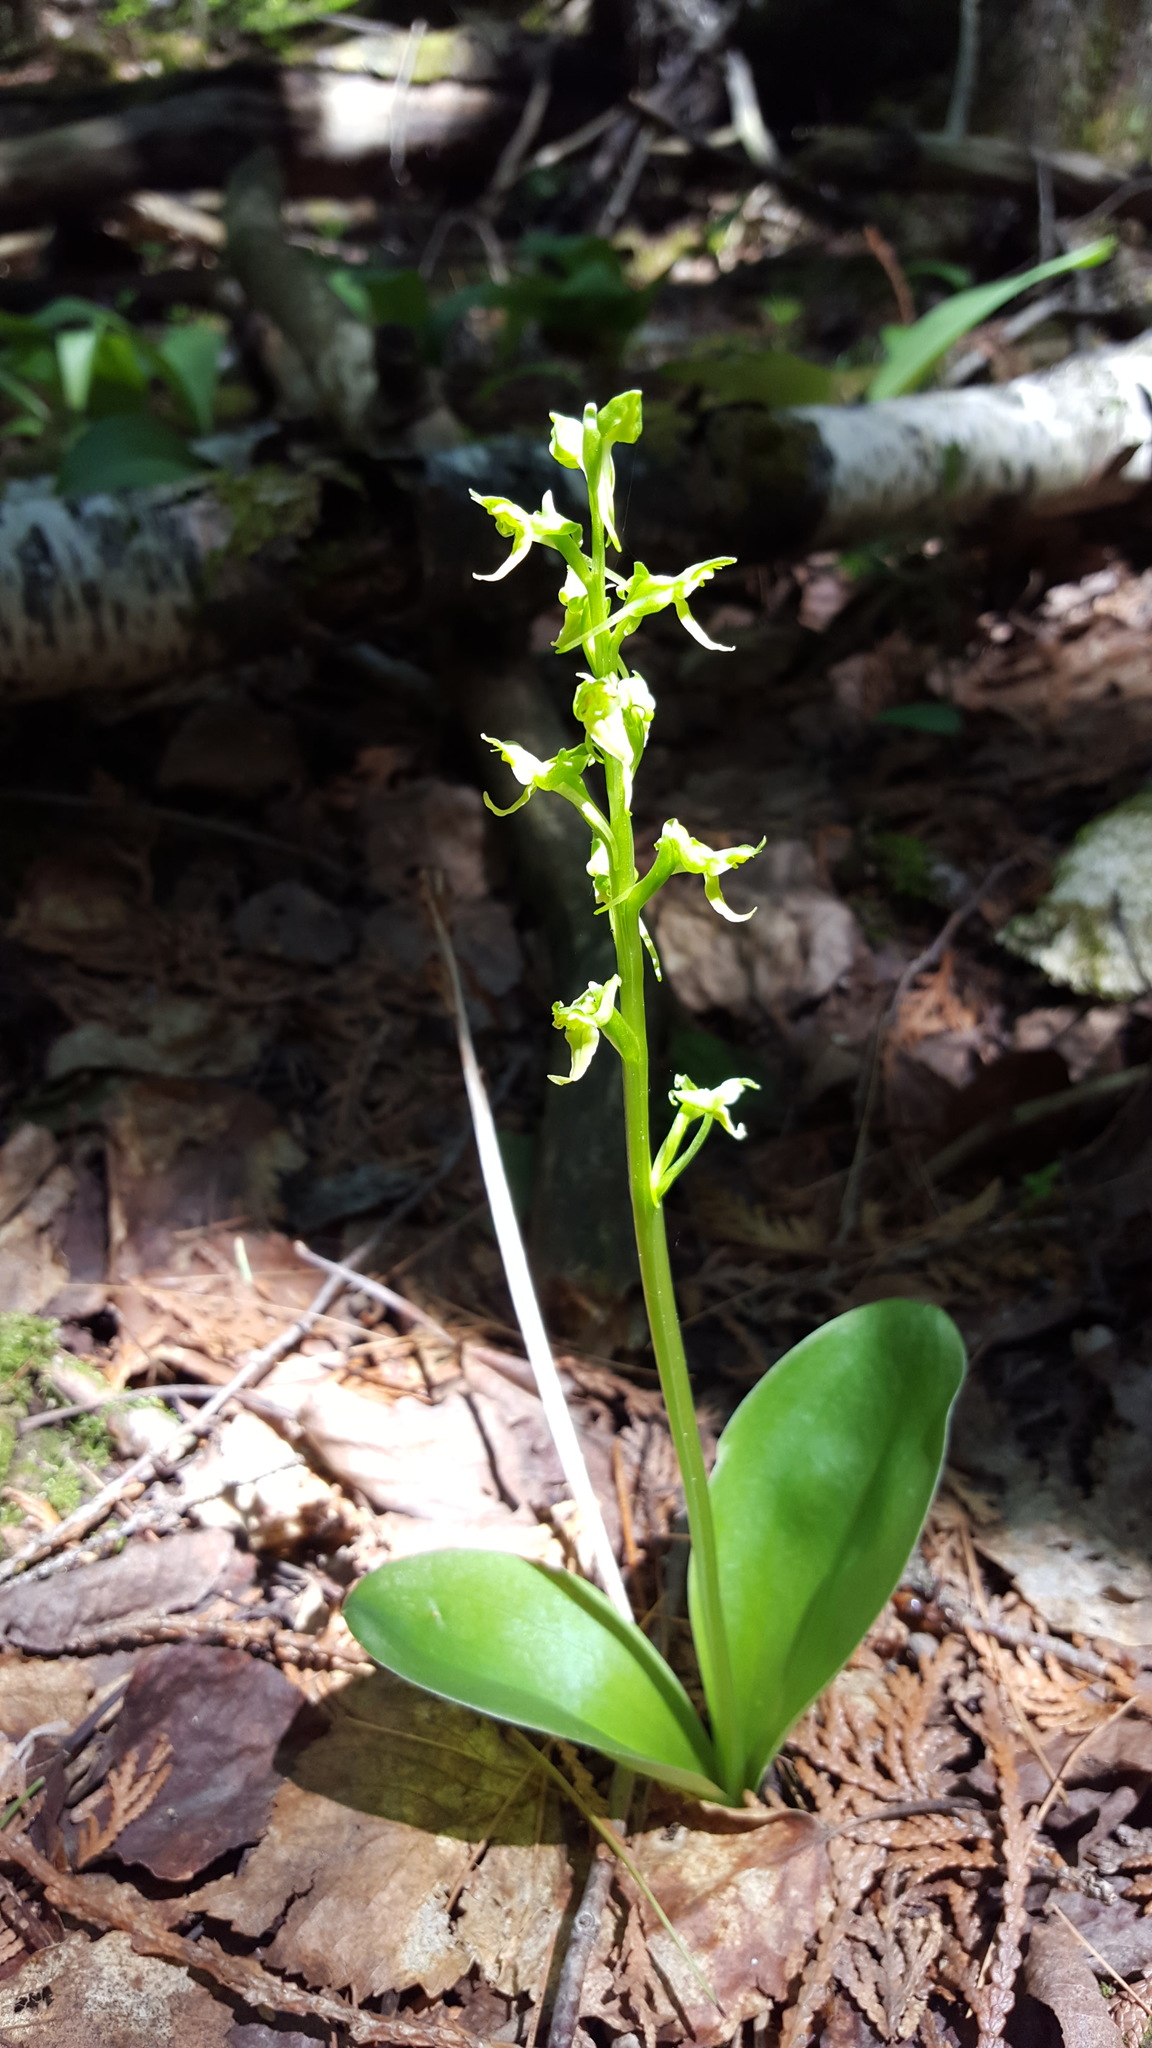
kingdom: Plantae
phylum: Tracheophyta
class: Liliopsida
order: Asparagales
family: Orchidaceae
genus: Platanthera
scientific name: Platanthera hookeri
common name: Hooker's orchid
